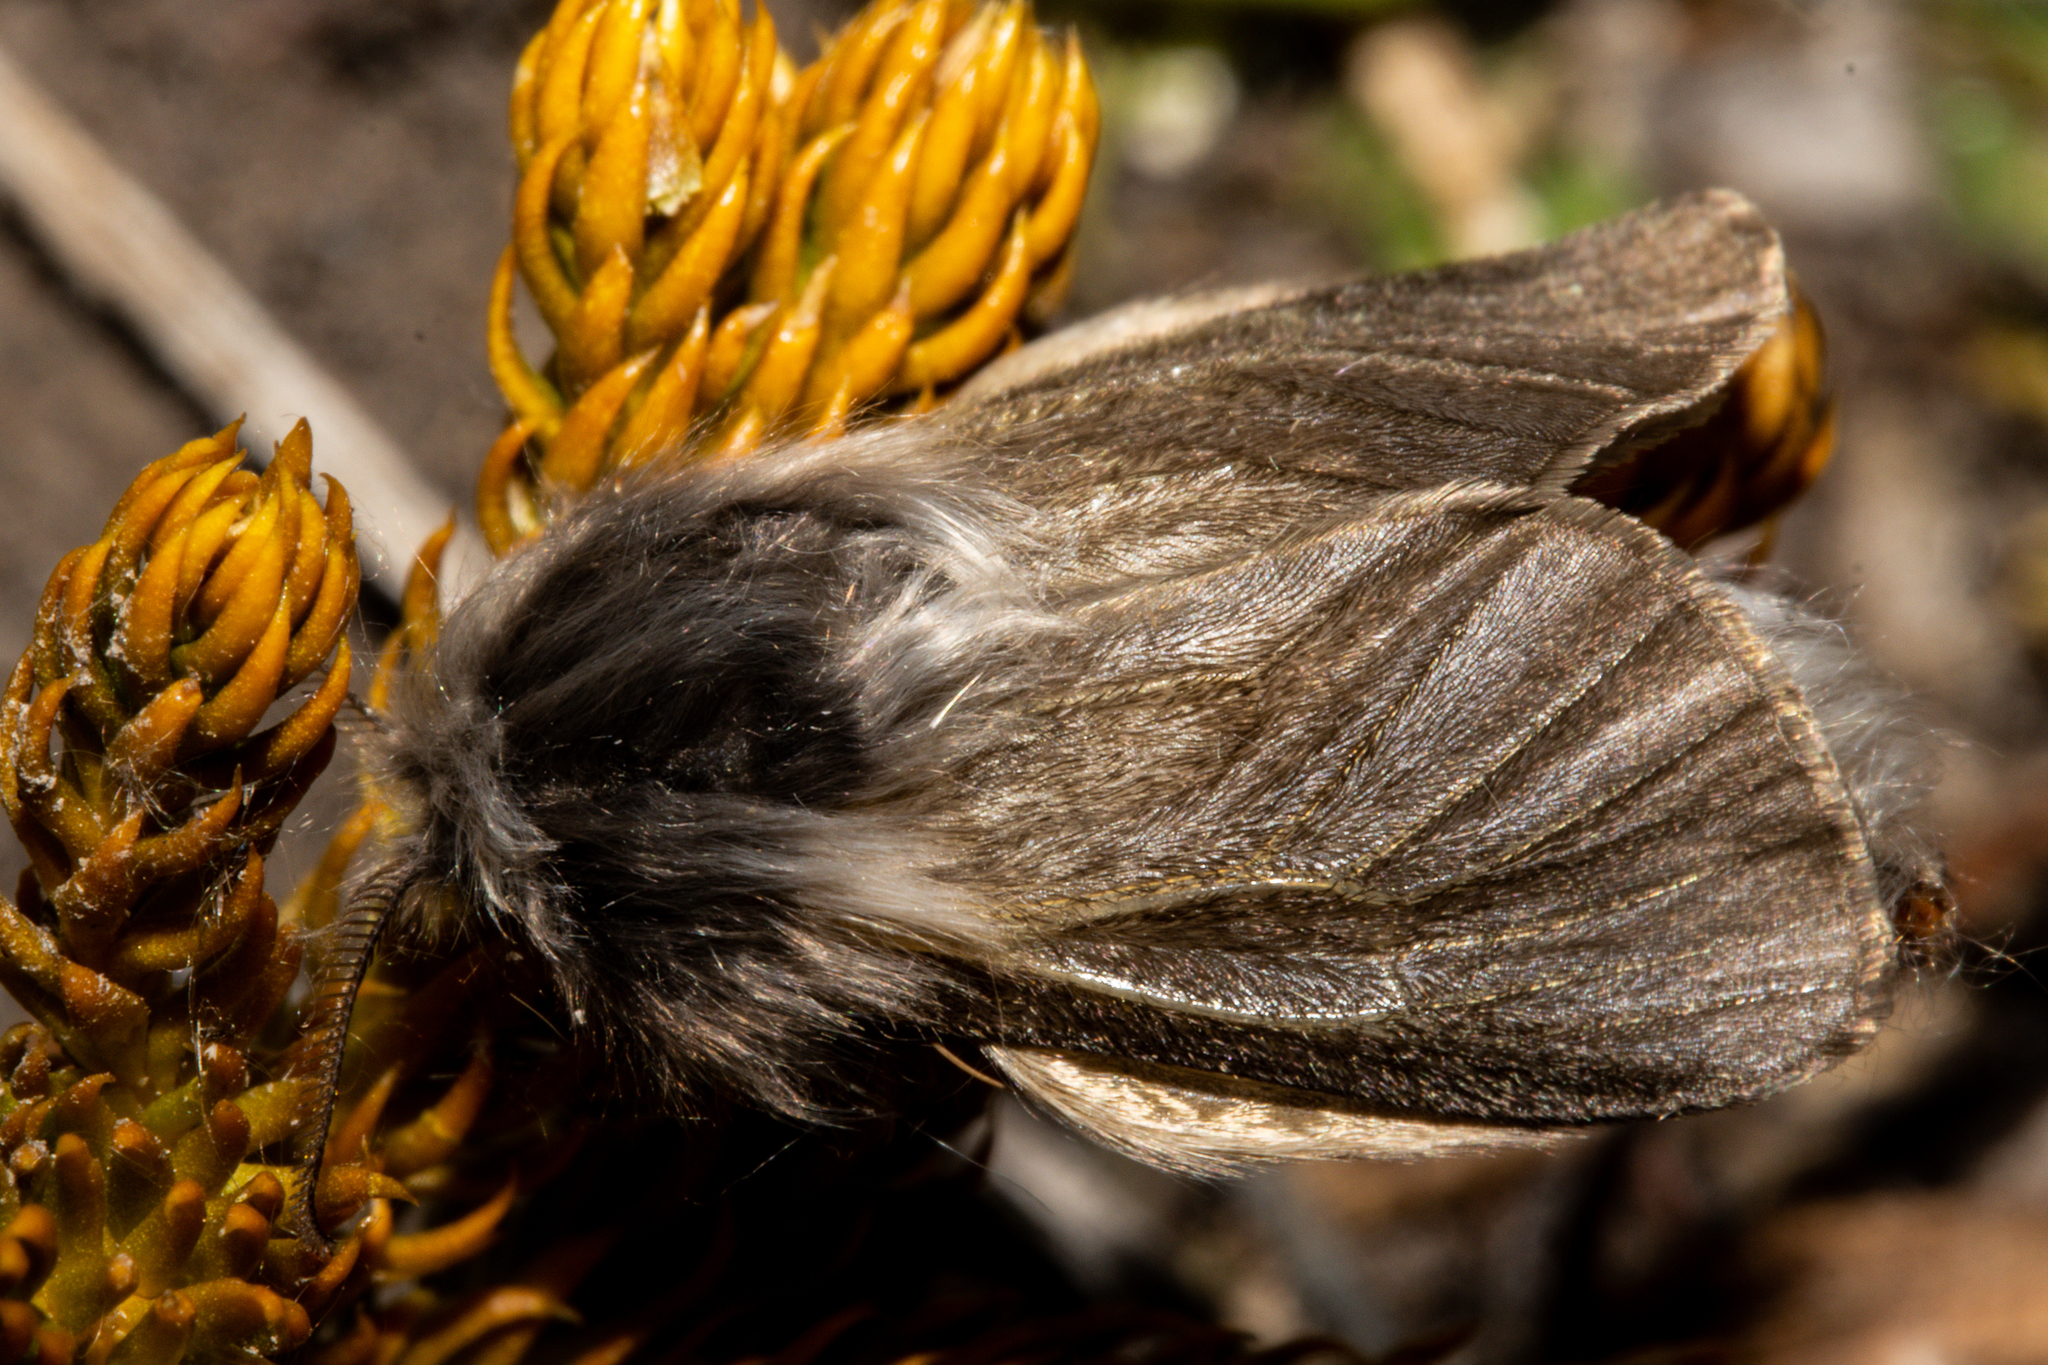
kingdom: Animalia
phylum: Arthropoda
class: Insecta
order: Lepidoptera
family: Psychidae
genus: Orophora
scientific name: Orophora unicolor
